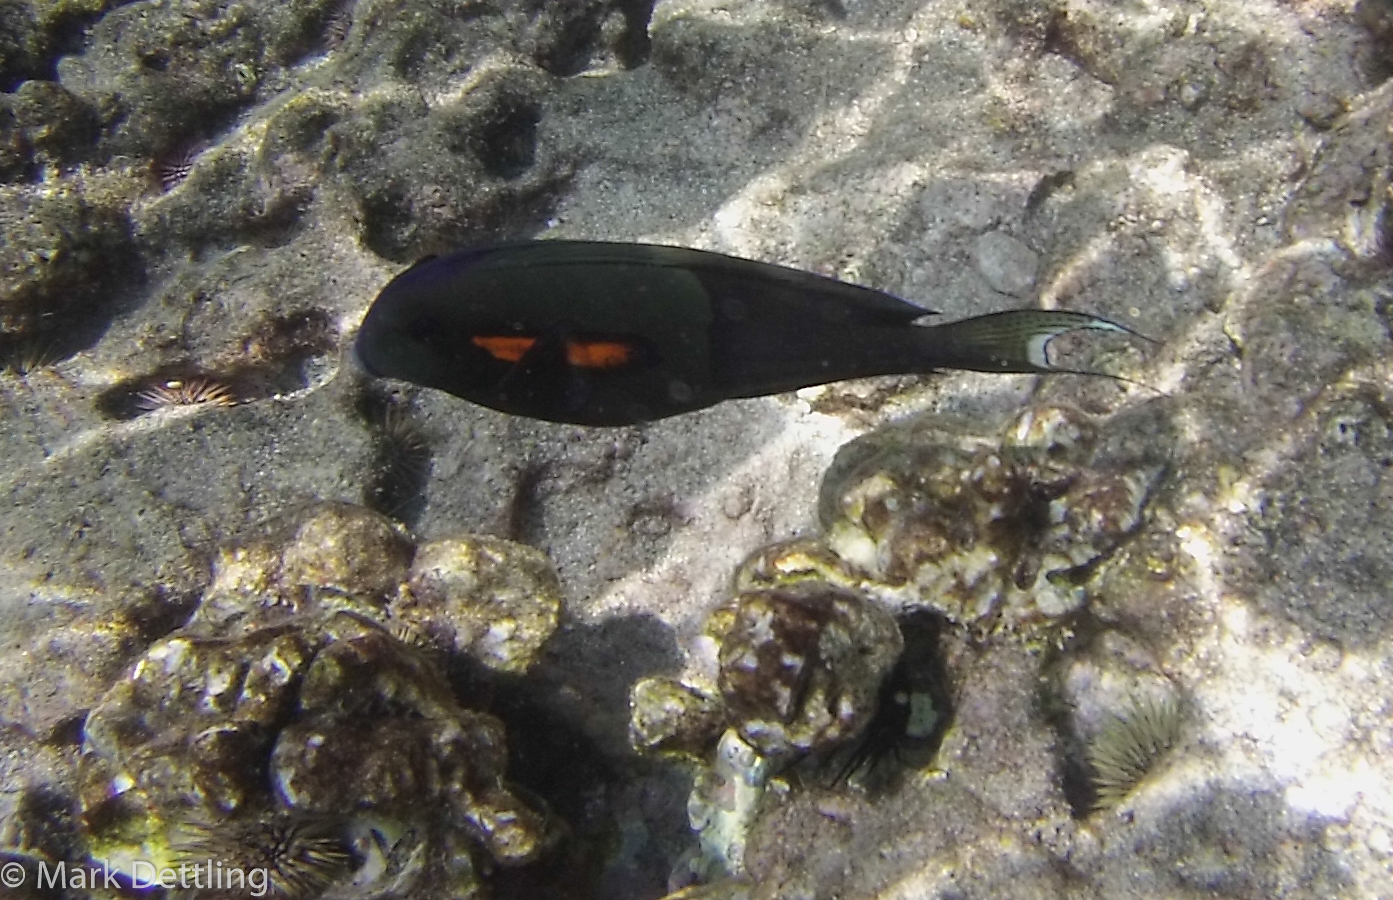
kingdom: Animalia
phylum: Chordata
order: Perciformes
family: Acanthuridae
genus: Acanthurus
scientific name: Acanthurus olivaceus
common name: Gendarme fish
